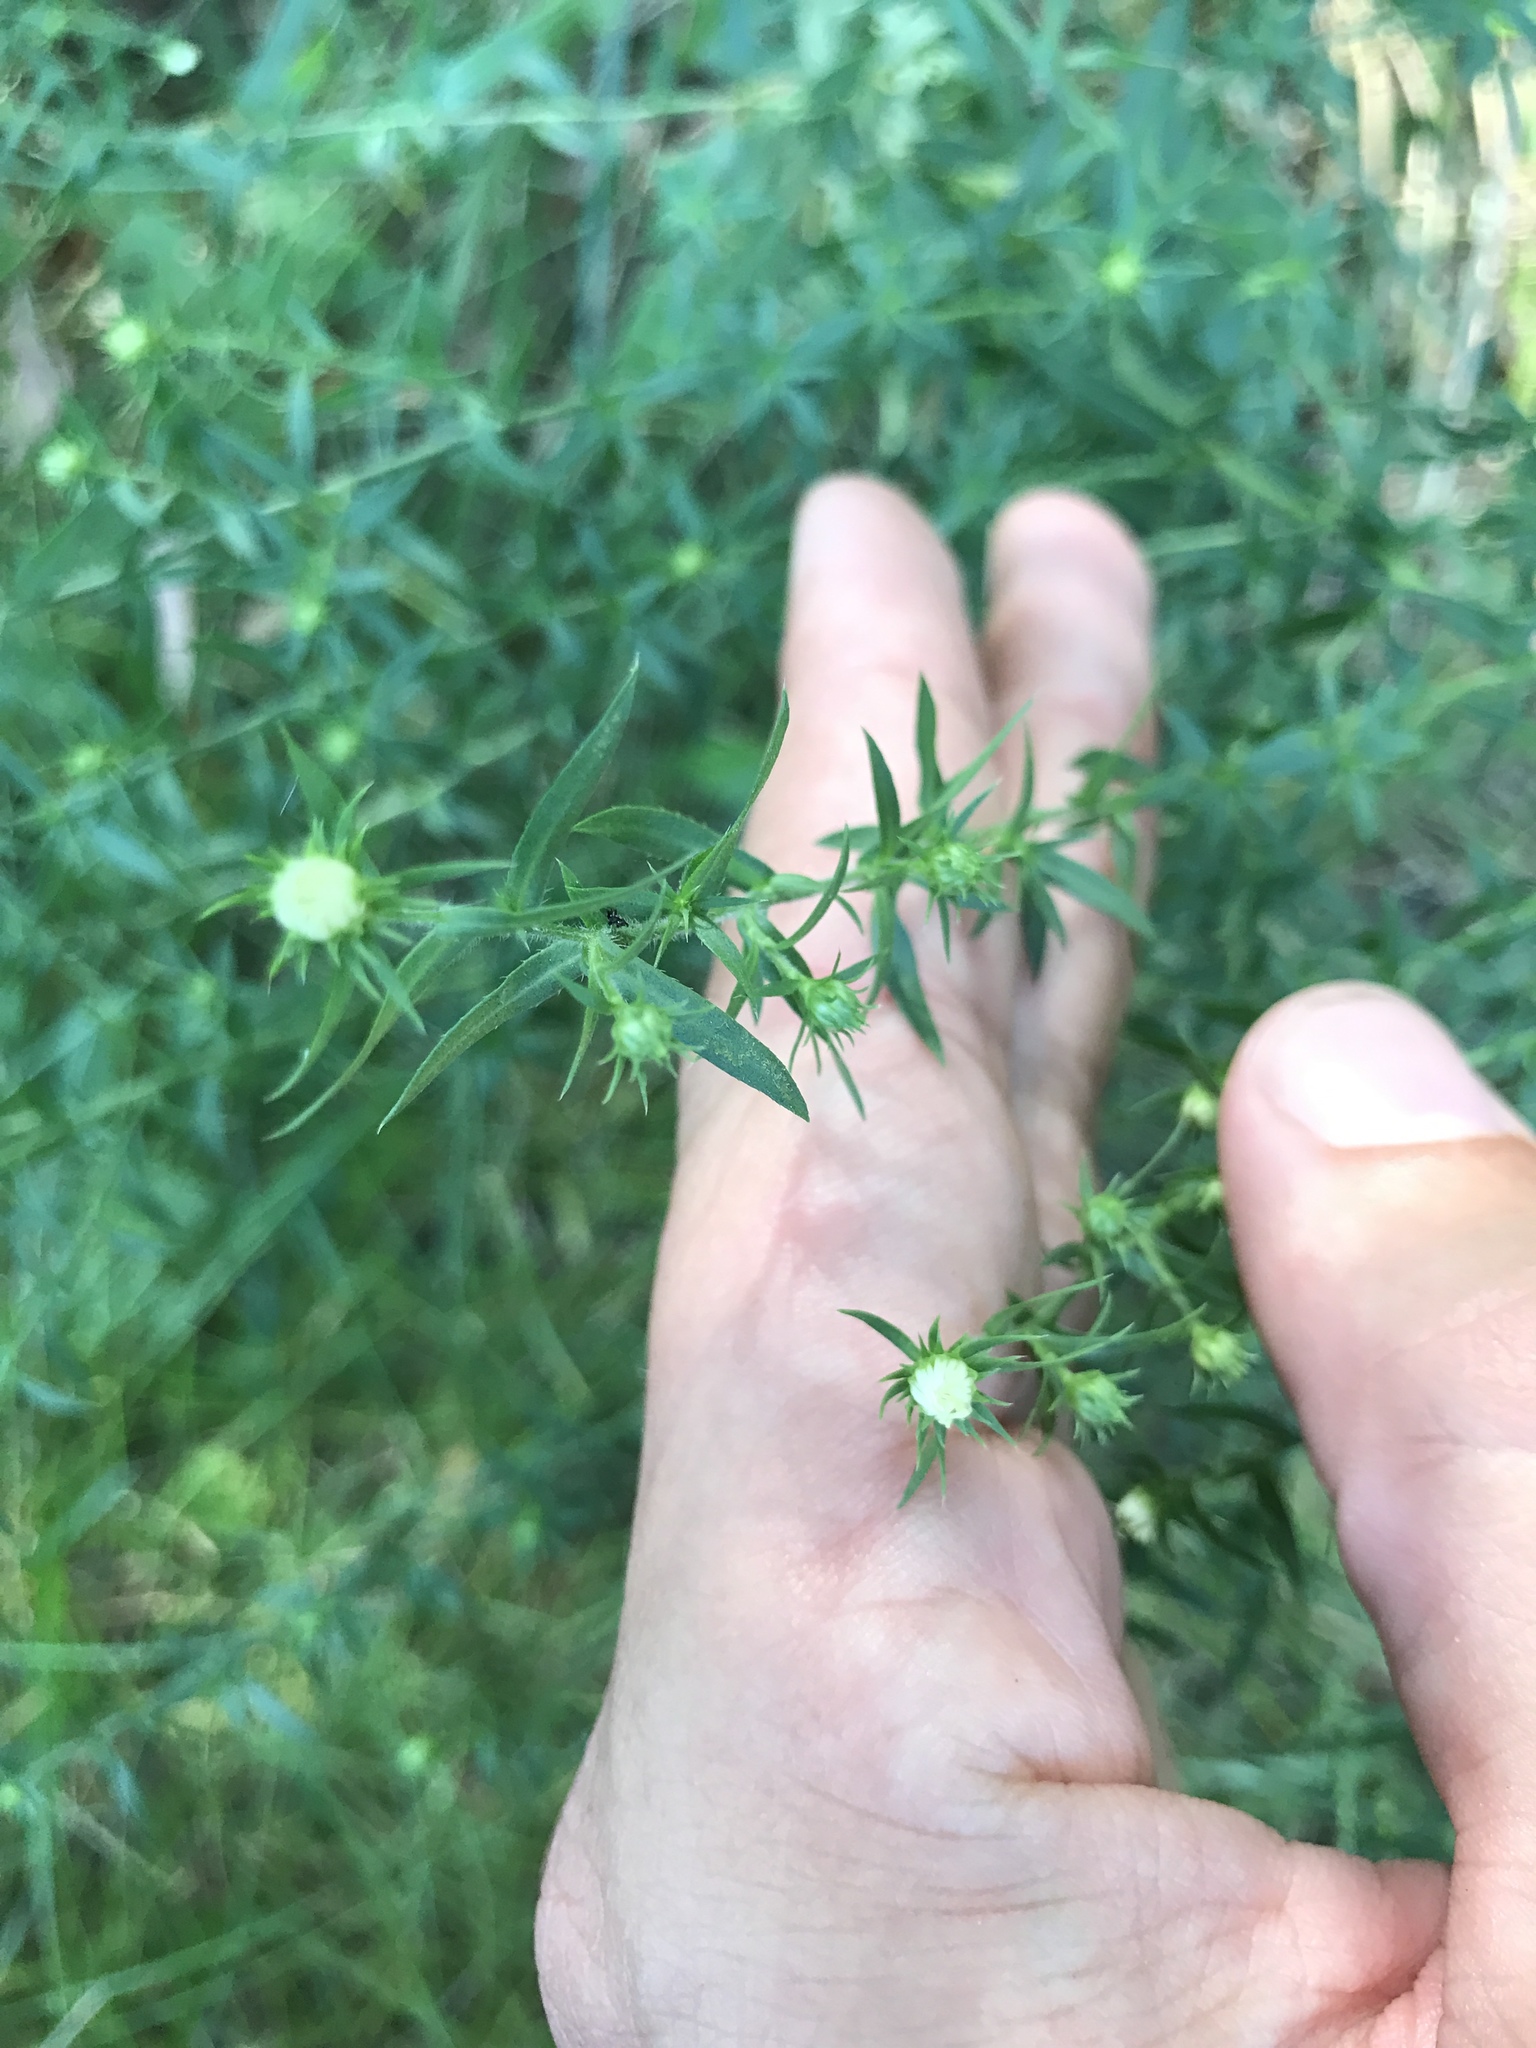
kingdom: Plantae
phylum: Tracheophyta
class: Magnoliopsida
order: Asterales
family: Asteraceae
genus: Symphyotrichum
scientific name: Symphyotrichum pilosum
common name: Awl aster
